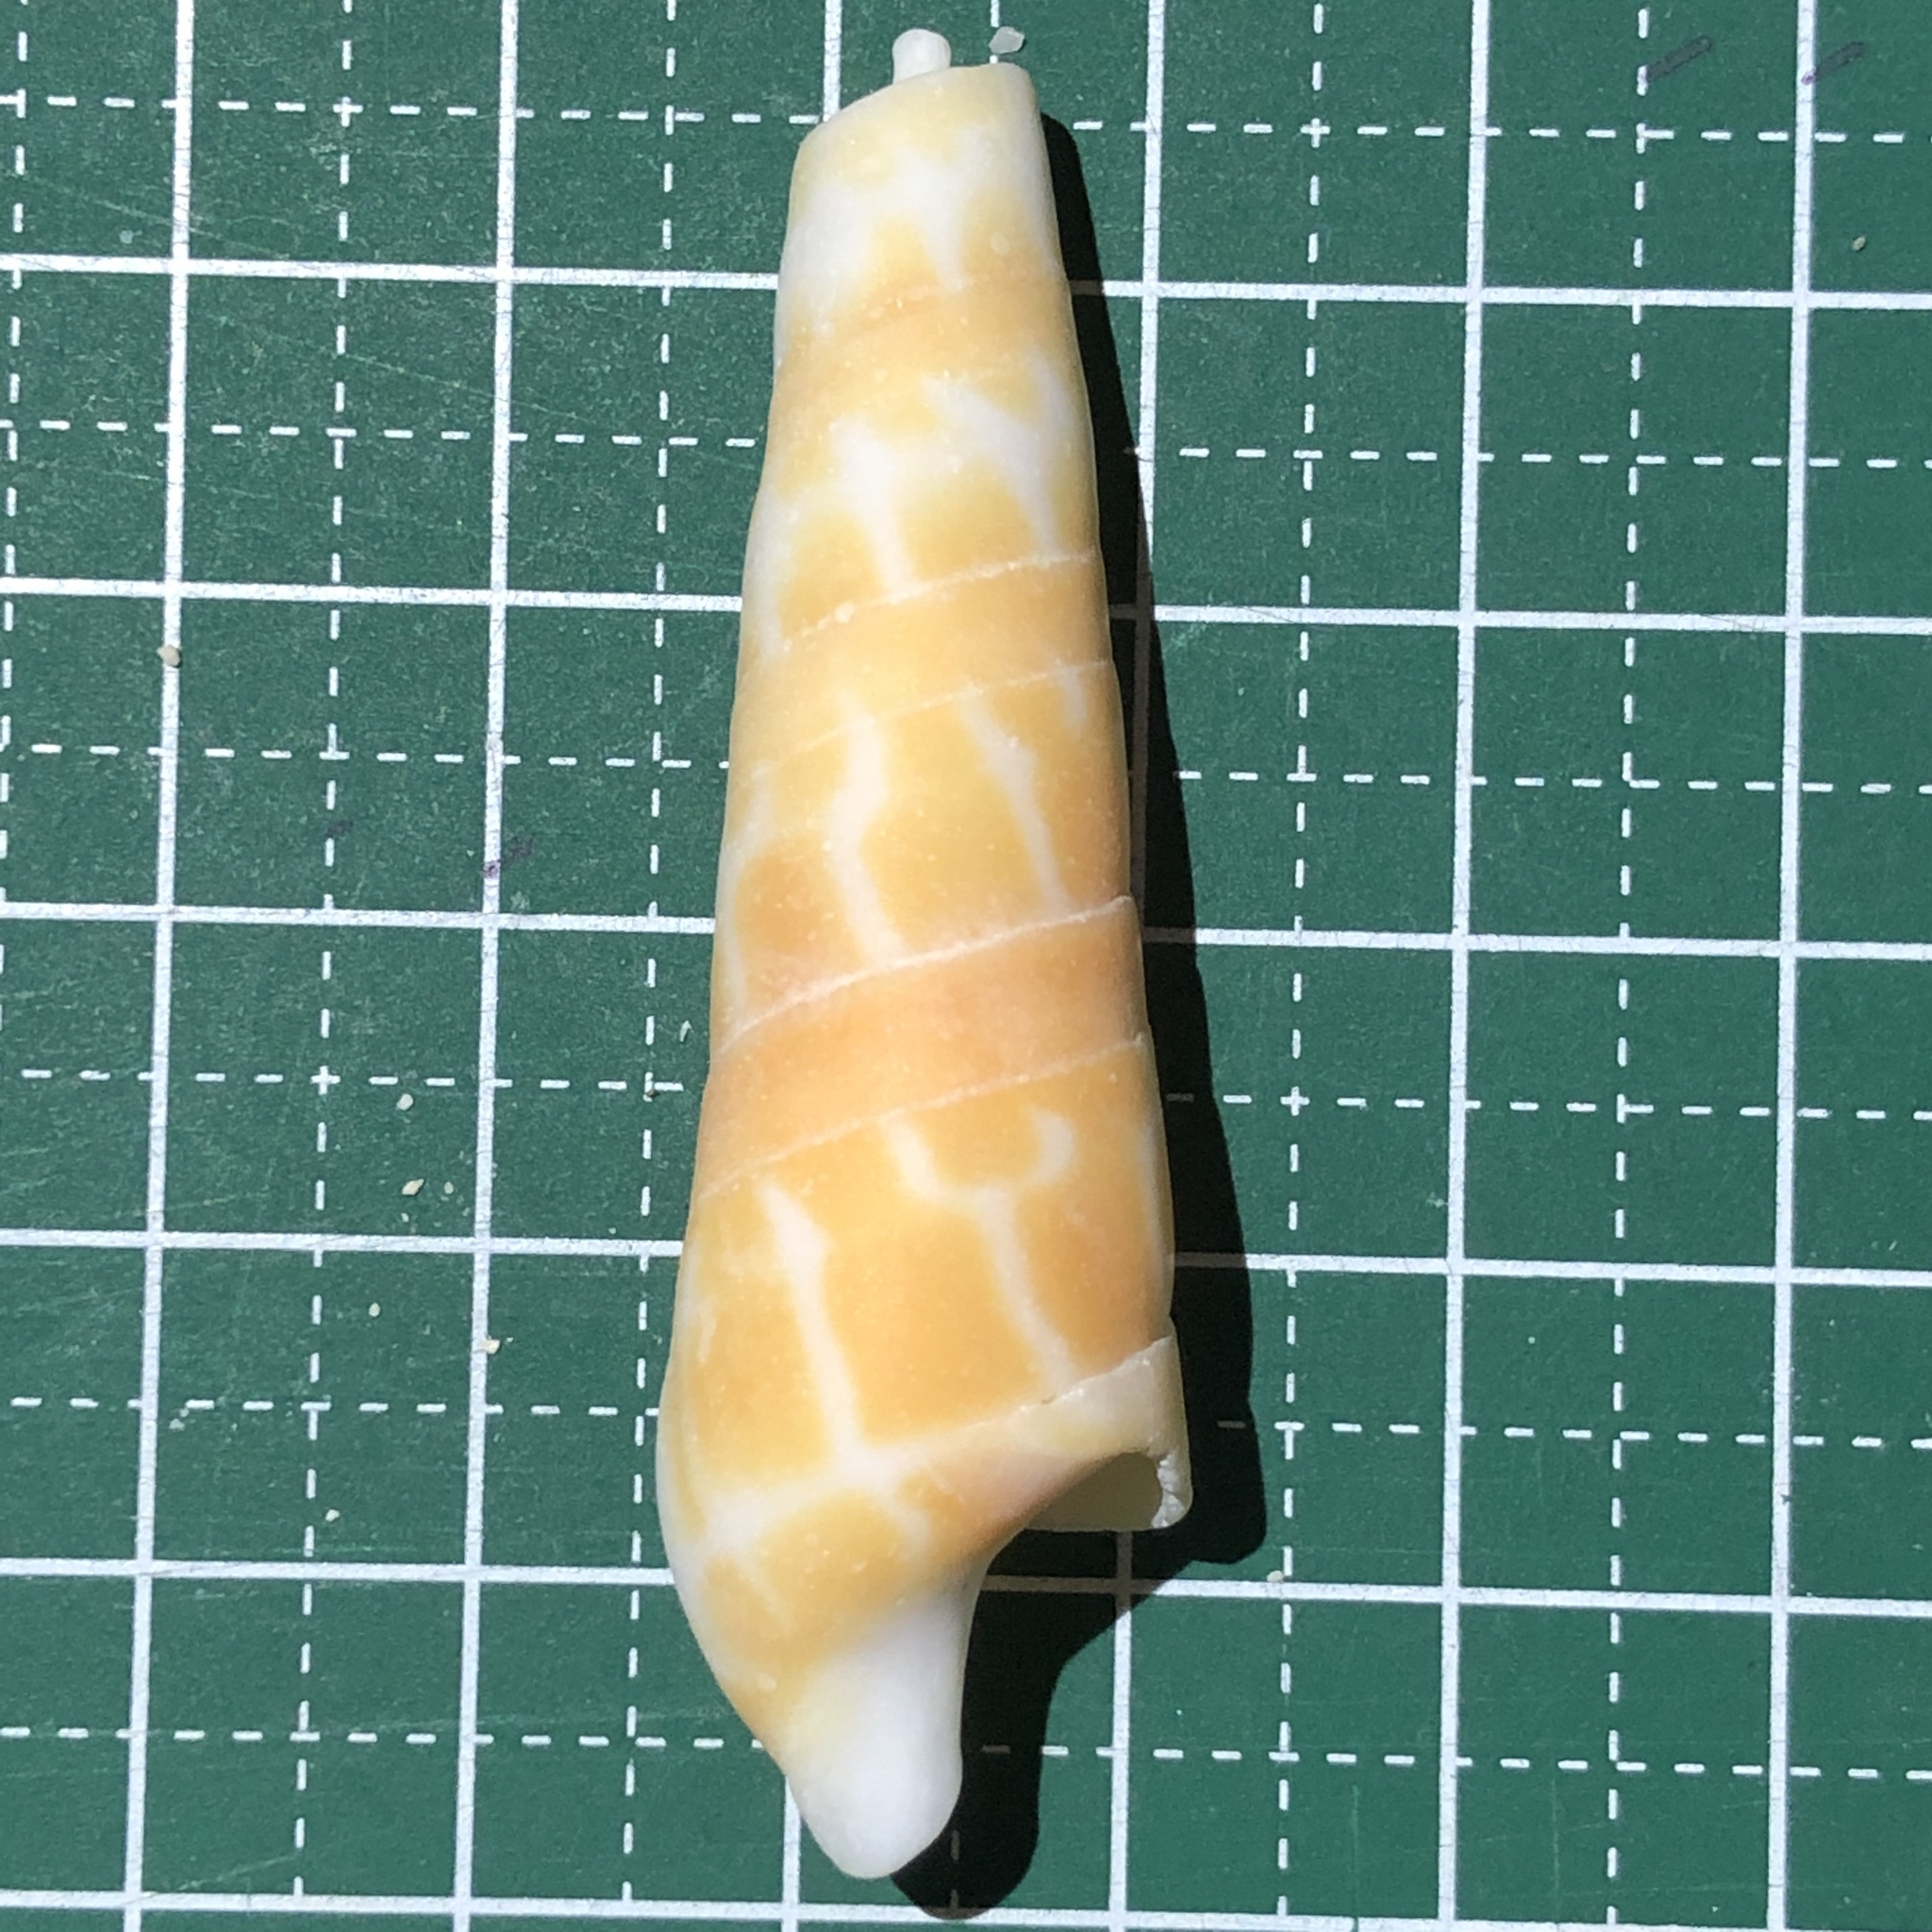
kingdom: Animalia
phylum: Mollusca
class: Gastropoda
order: Neogastropoda
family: Terebridae
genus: Oxymeris
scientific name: Oxymeris dimidiata
